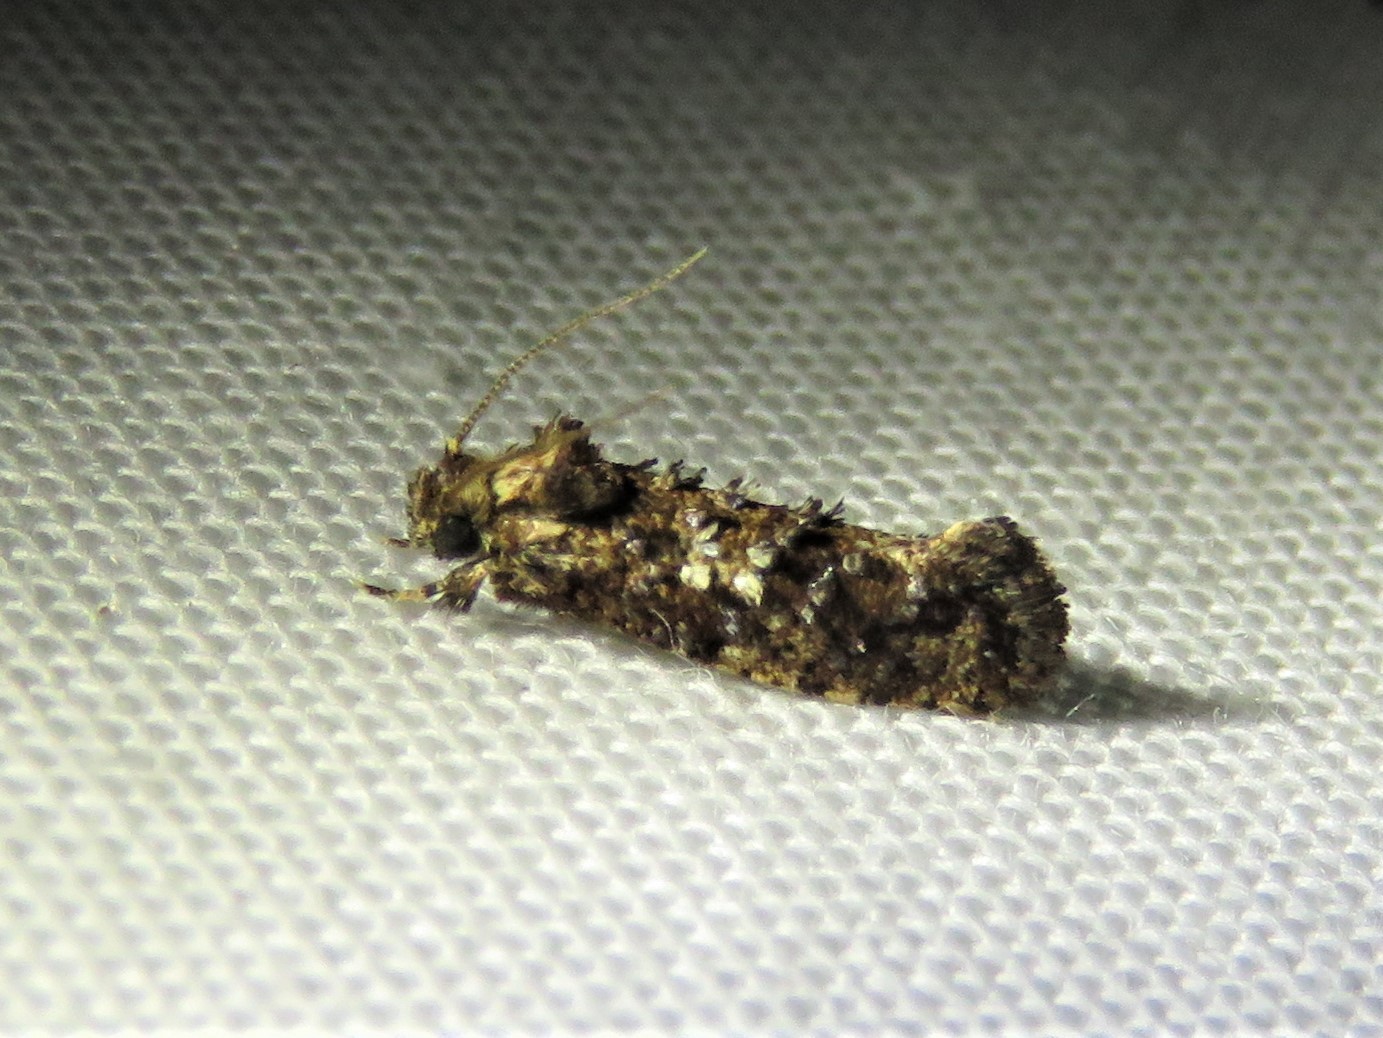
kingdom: Animalia
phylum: Arthropoda
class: Insecta
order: Lepidoptera
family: Tineidae
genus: Acrolophus
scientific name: Acrolophus cressoni
